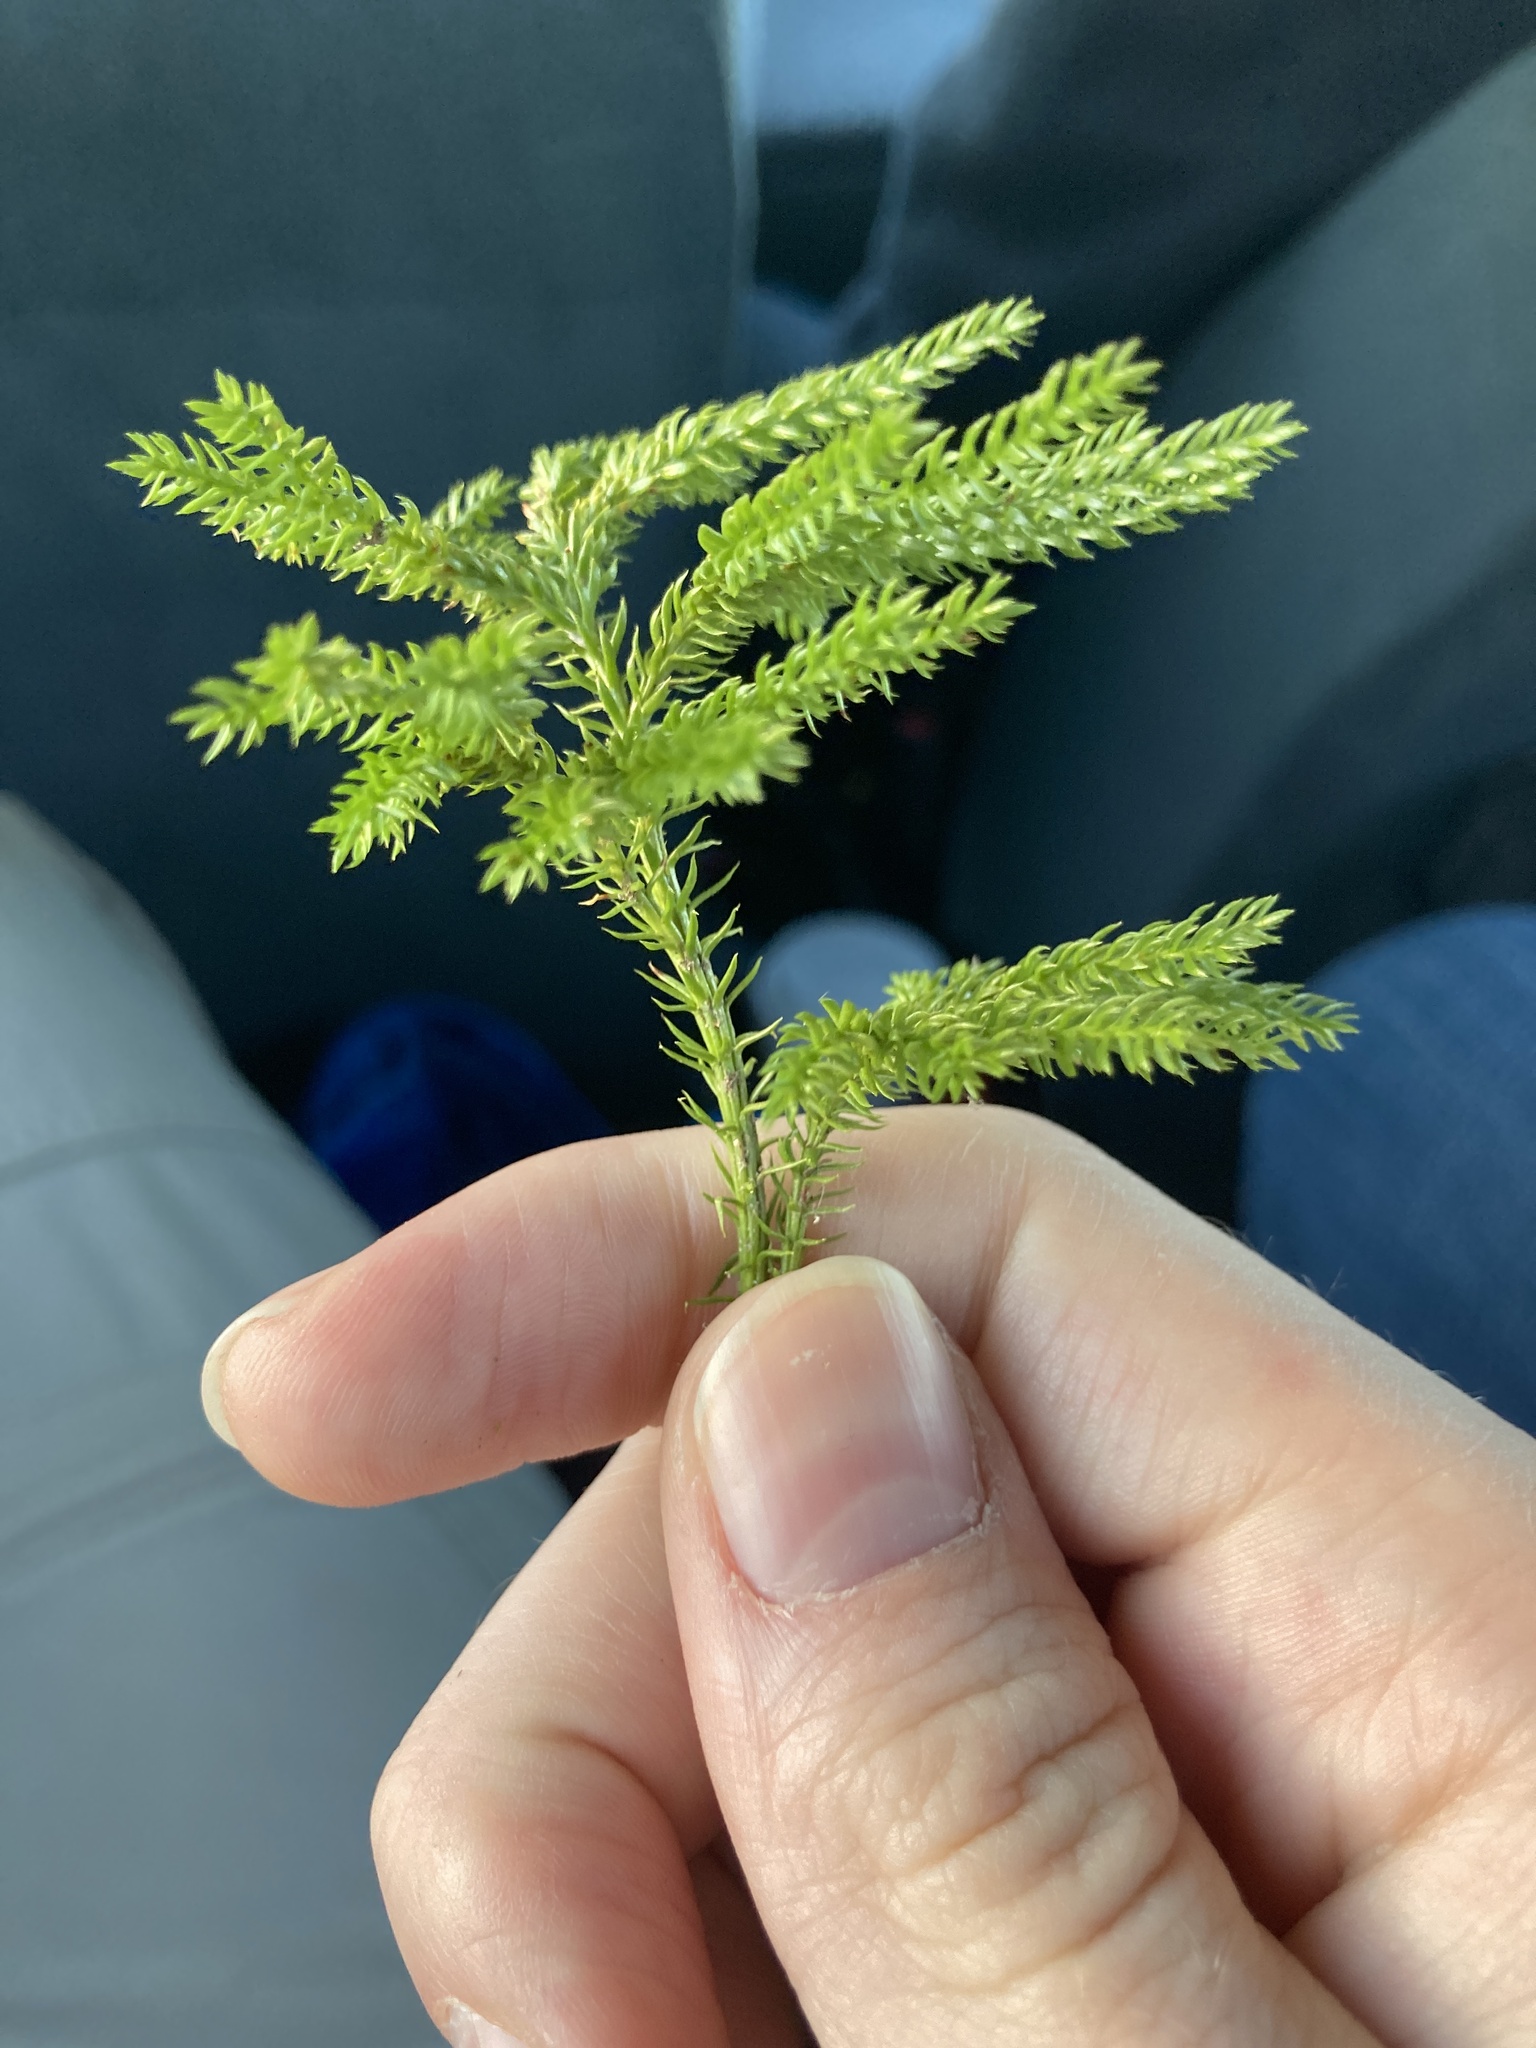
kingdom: Plantae
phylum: Tracheophyta
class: Lycopodiopsida
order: Lycopodiales
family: Lycopodiaceae
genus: Dendrolycopodium
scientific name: Dendrolycopodium dendroideum
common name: Northern tree-clubmoss
